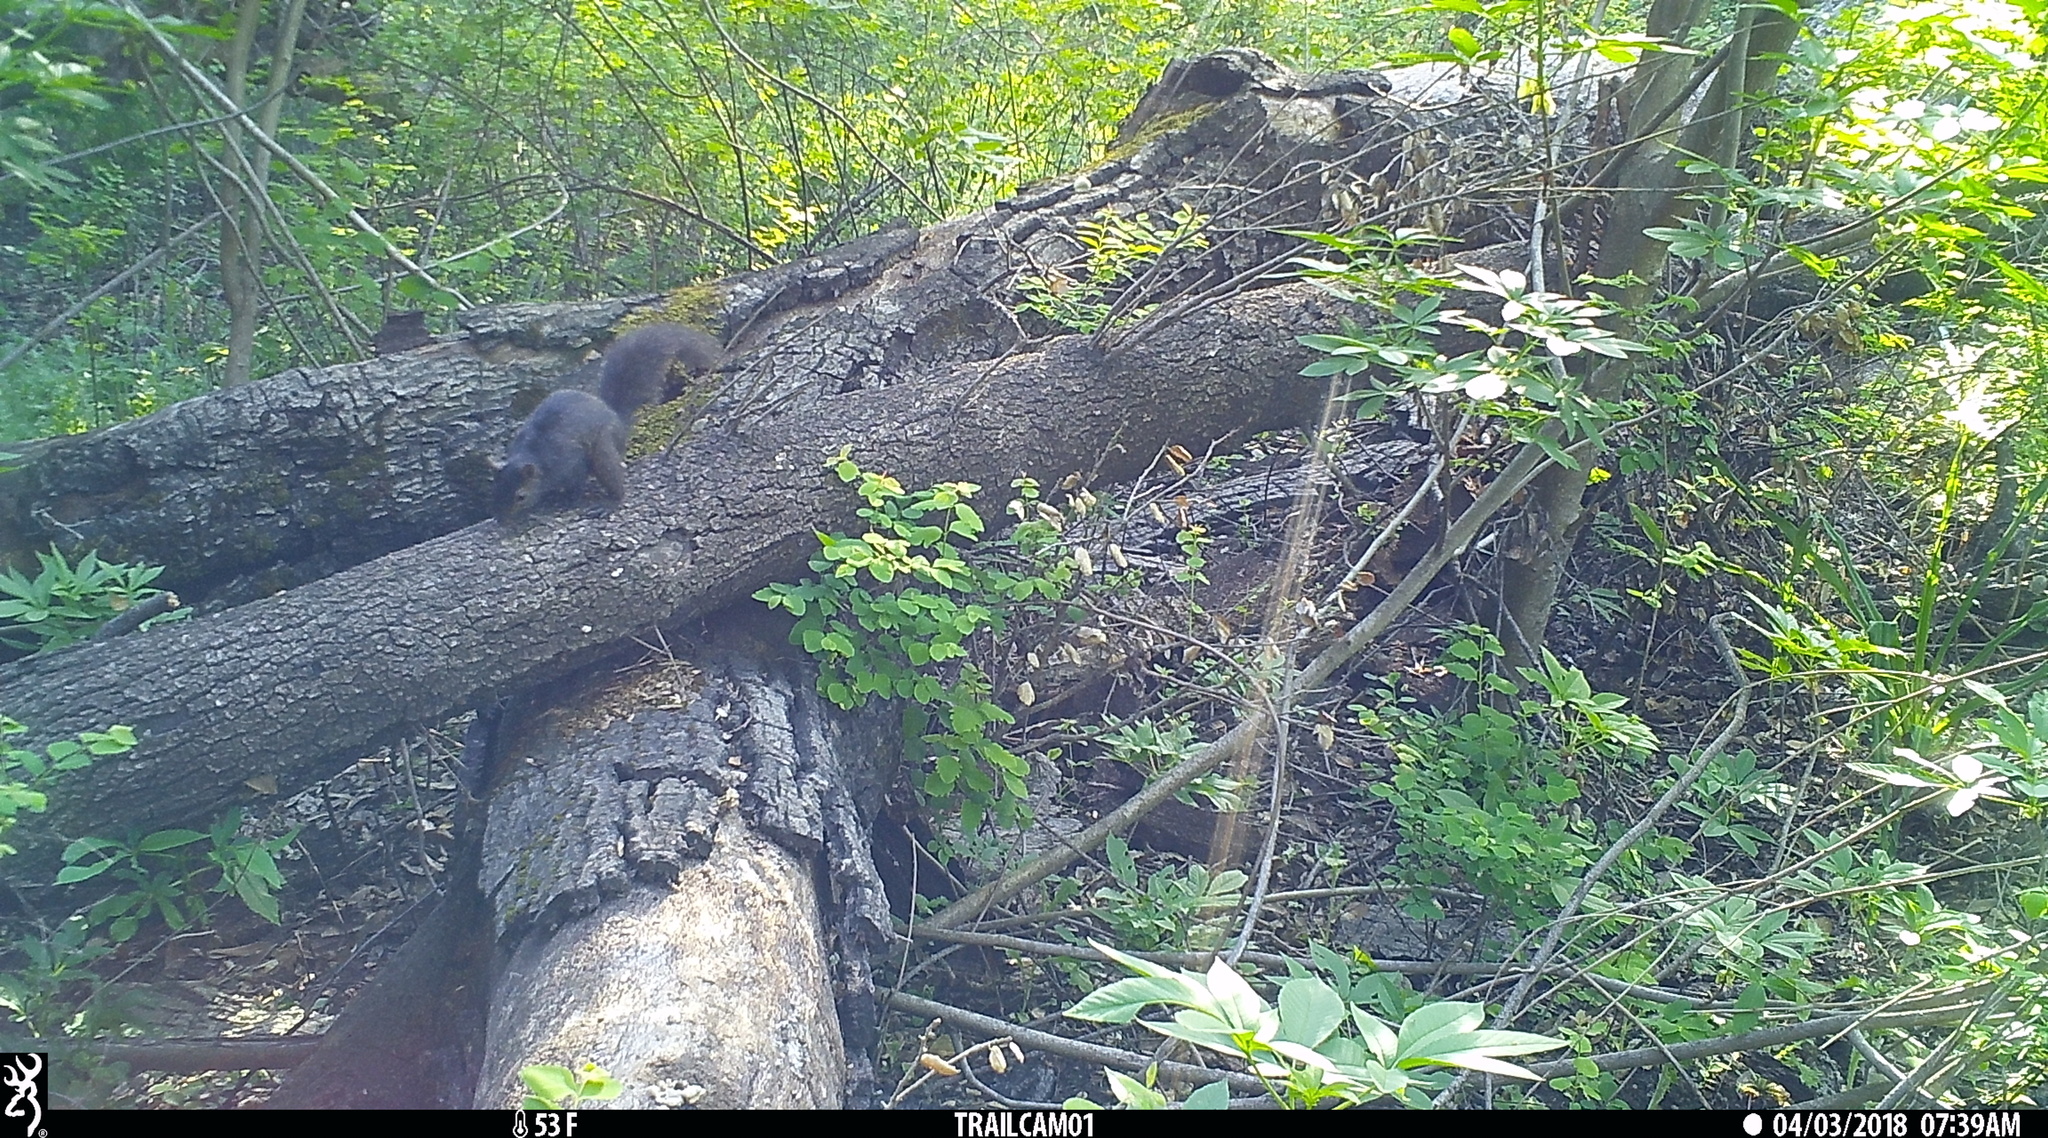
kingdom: Animalia
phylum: Chordata
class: Mammalia
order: Rodentia
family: Sciuridae
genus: Sciurus
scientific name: Sciurus carolinensis
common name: Eastern gray squirrel
